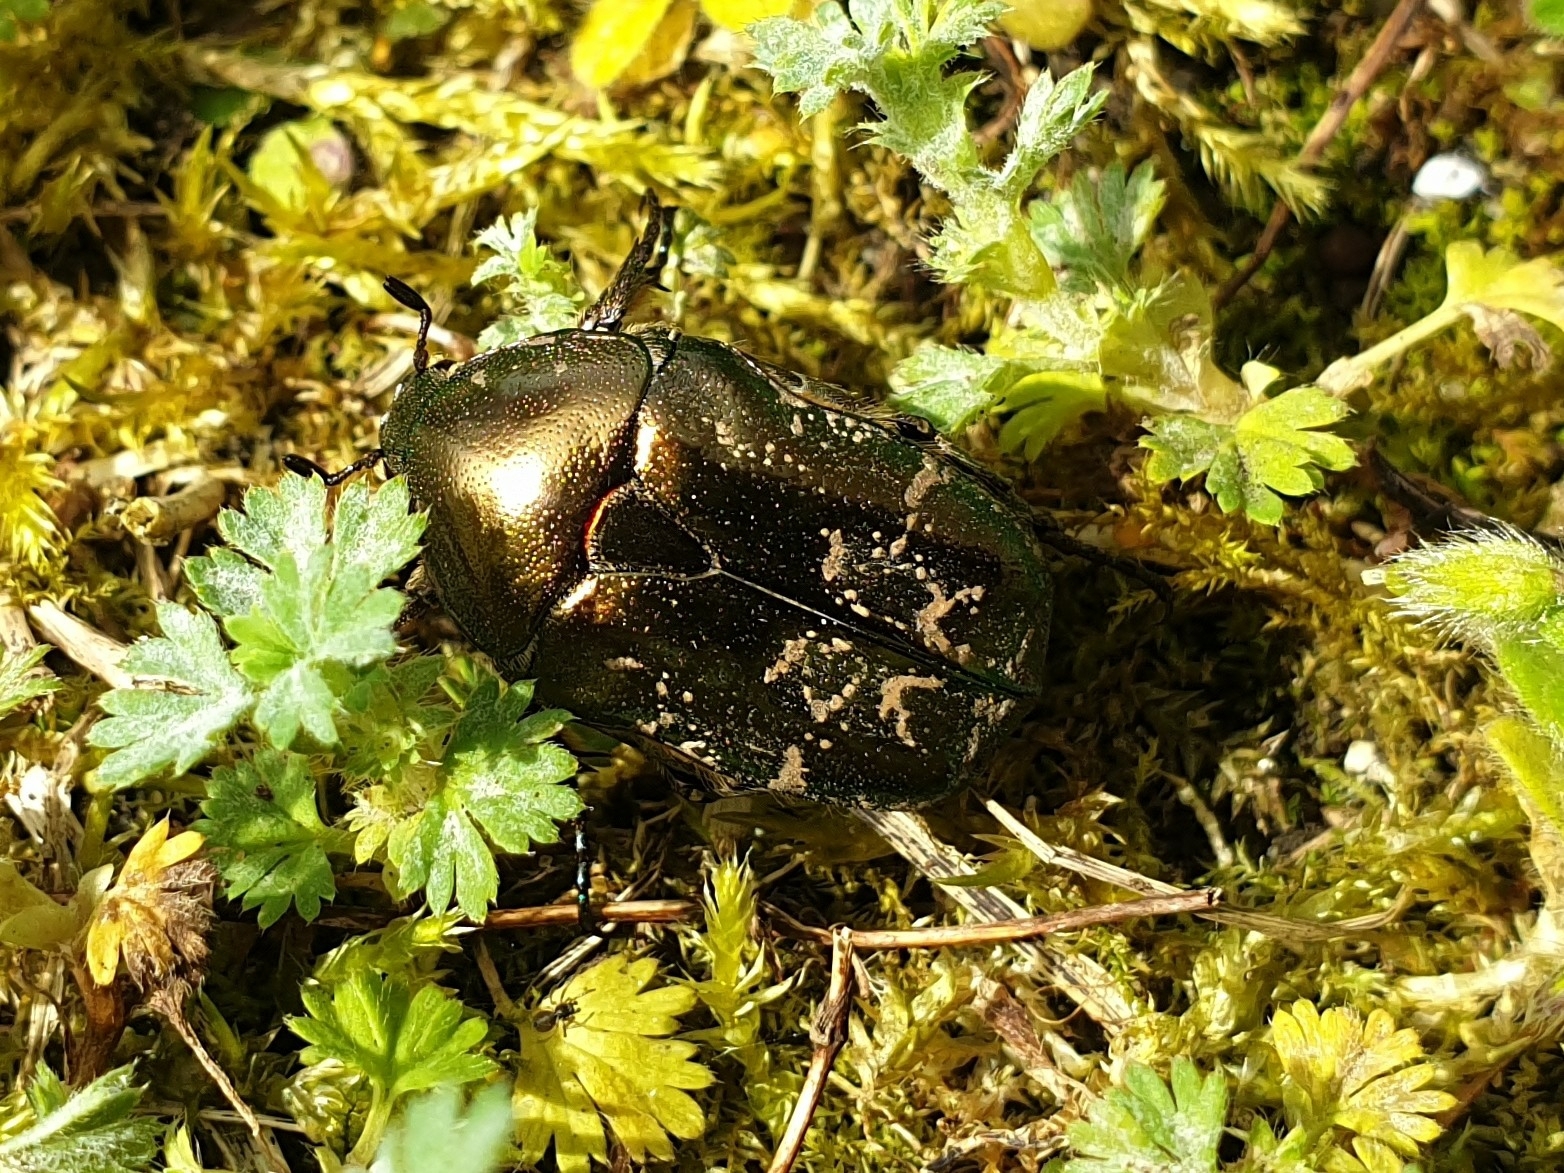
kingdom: Animalia
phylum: Arthropoda
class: Insecta
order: Coleoptera
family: Scarabaeidae
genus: Cetonia
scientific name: Cetonia aurata
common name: Rose chafer
